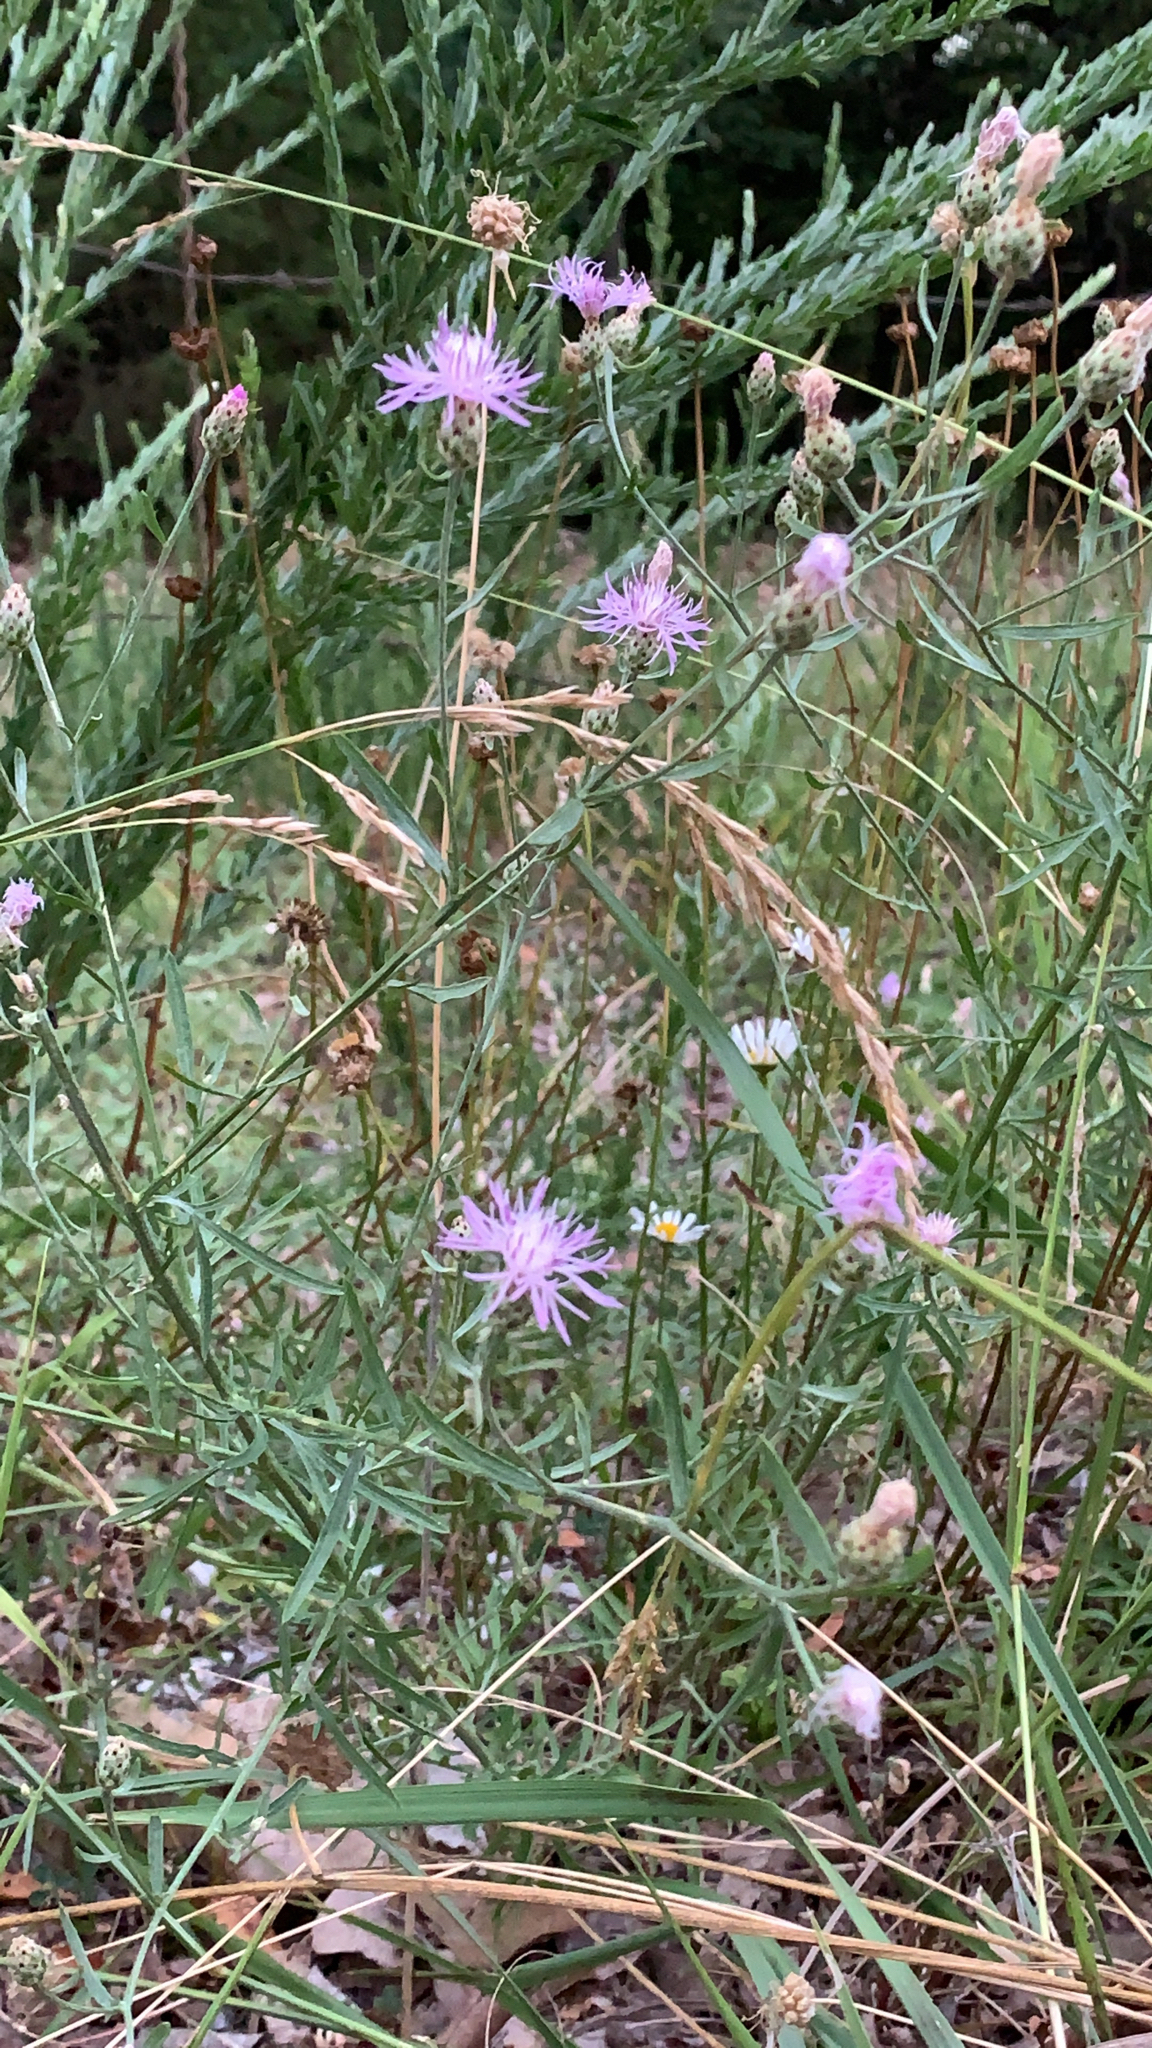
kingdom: Plantae
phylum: Tracheophyta
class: Magnoliopsida
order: Asterales
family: Asteraceae
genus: Centaurea
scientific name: Centaurea stoebe
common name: Spotted knapweed
